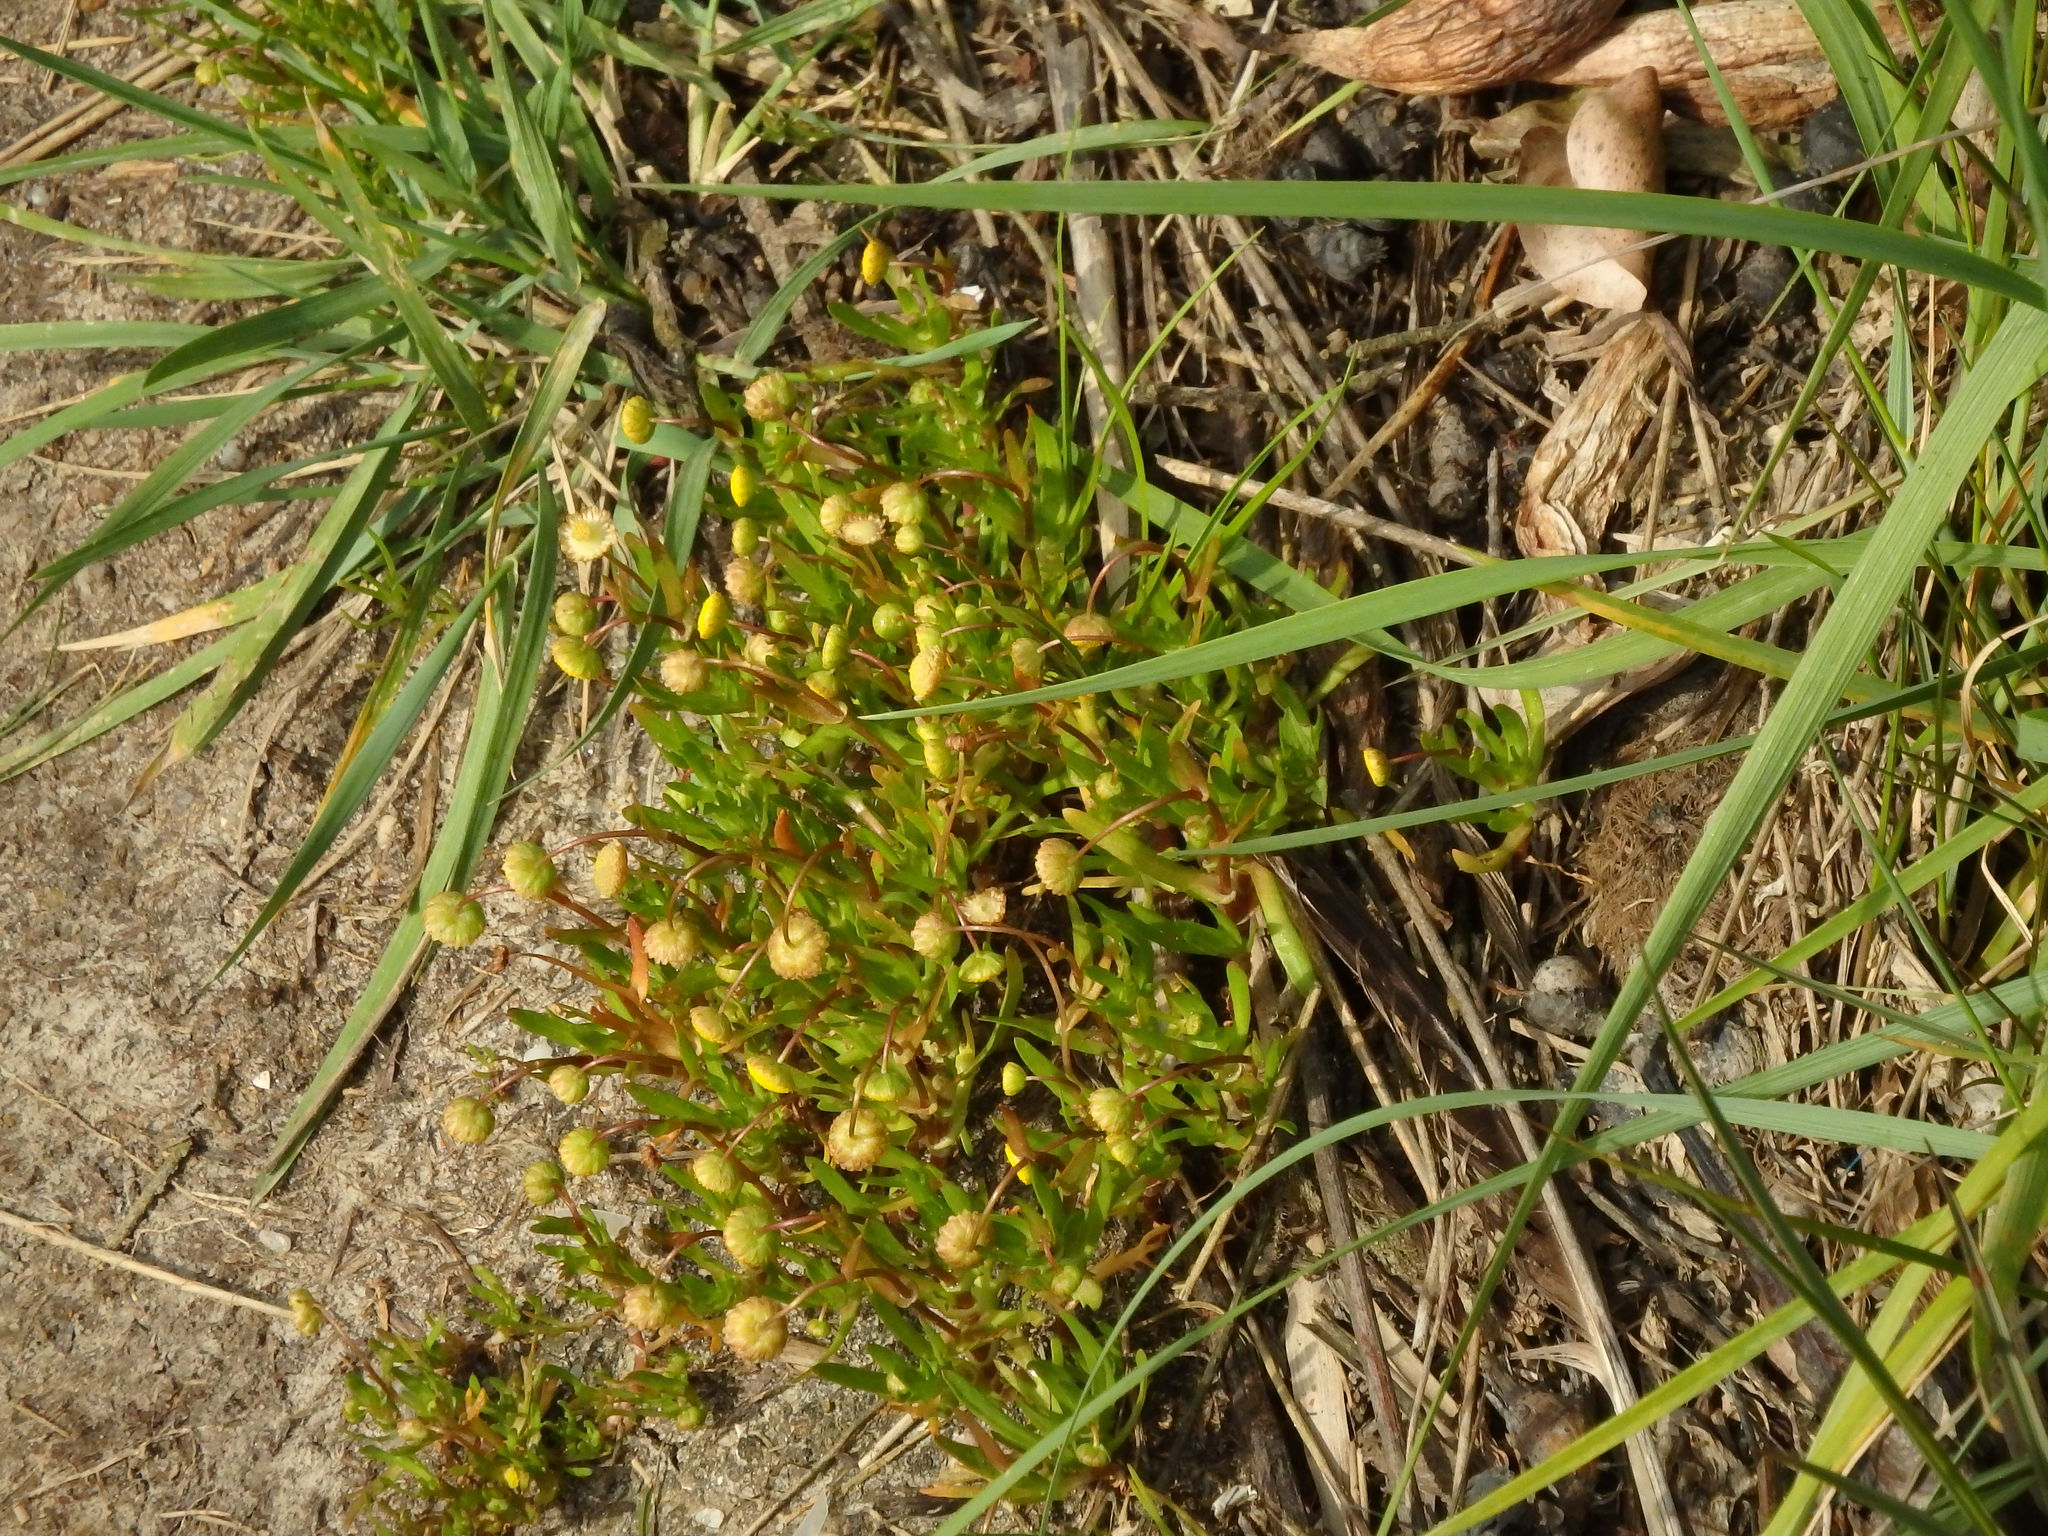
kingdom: Plantae
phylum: Tracheophyta
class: Magnoliopsida
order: Asterales
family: Asteraceae
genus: Cotula
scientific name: Cotula coronopifolia
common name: Buttonweed
